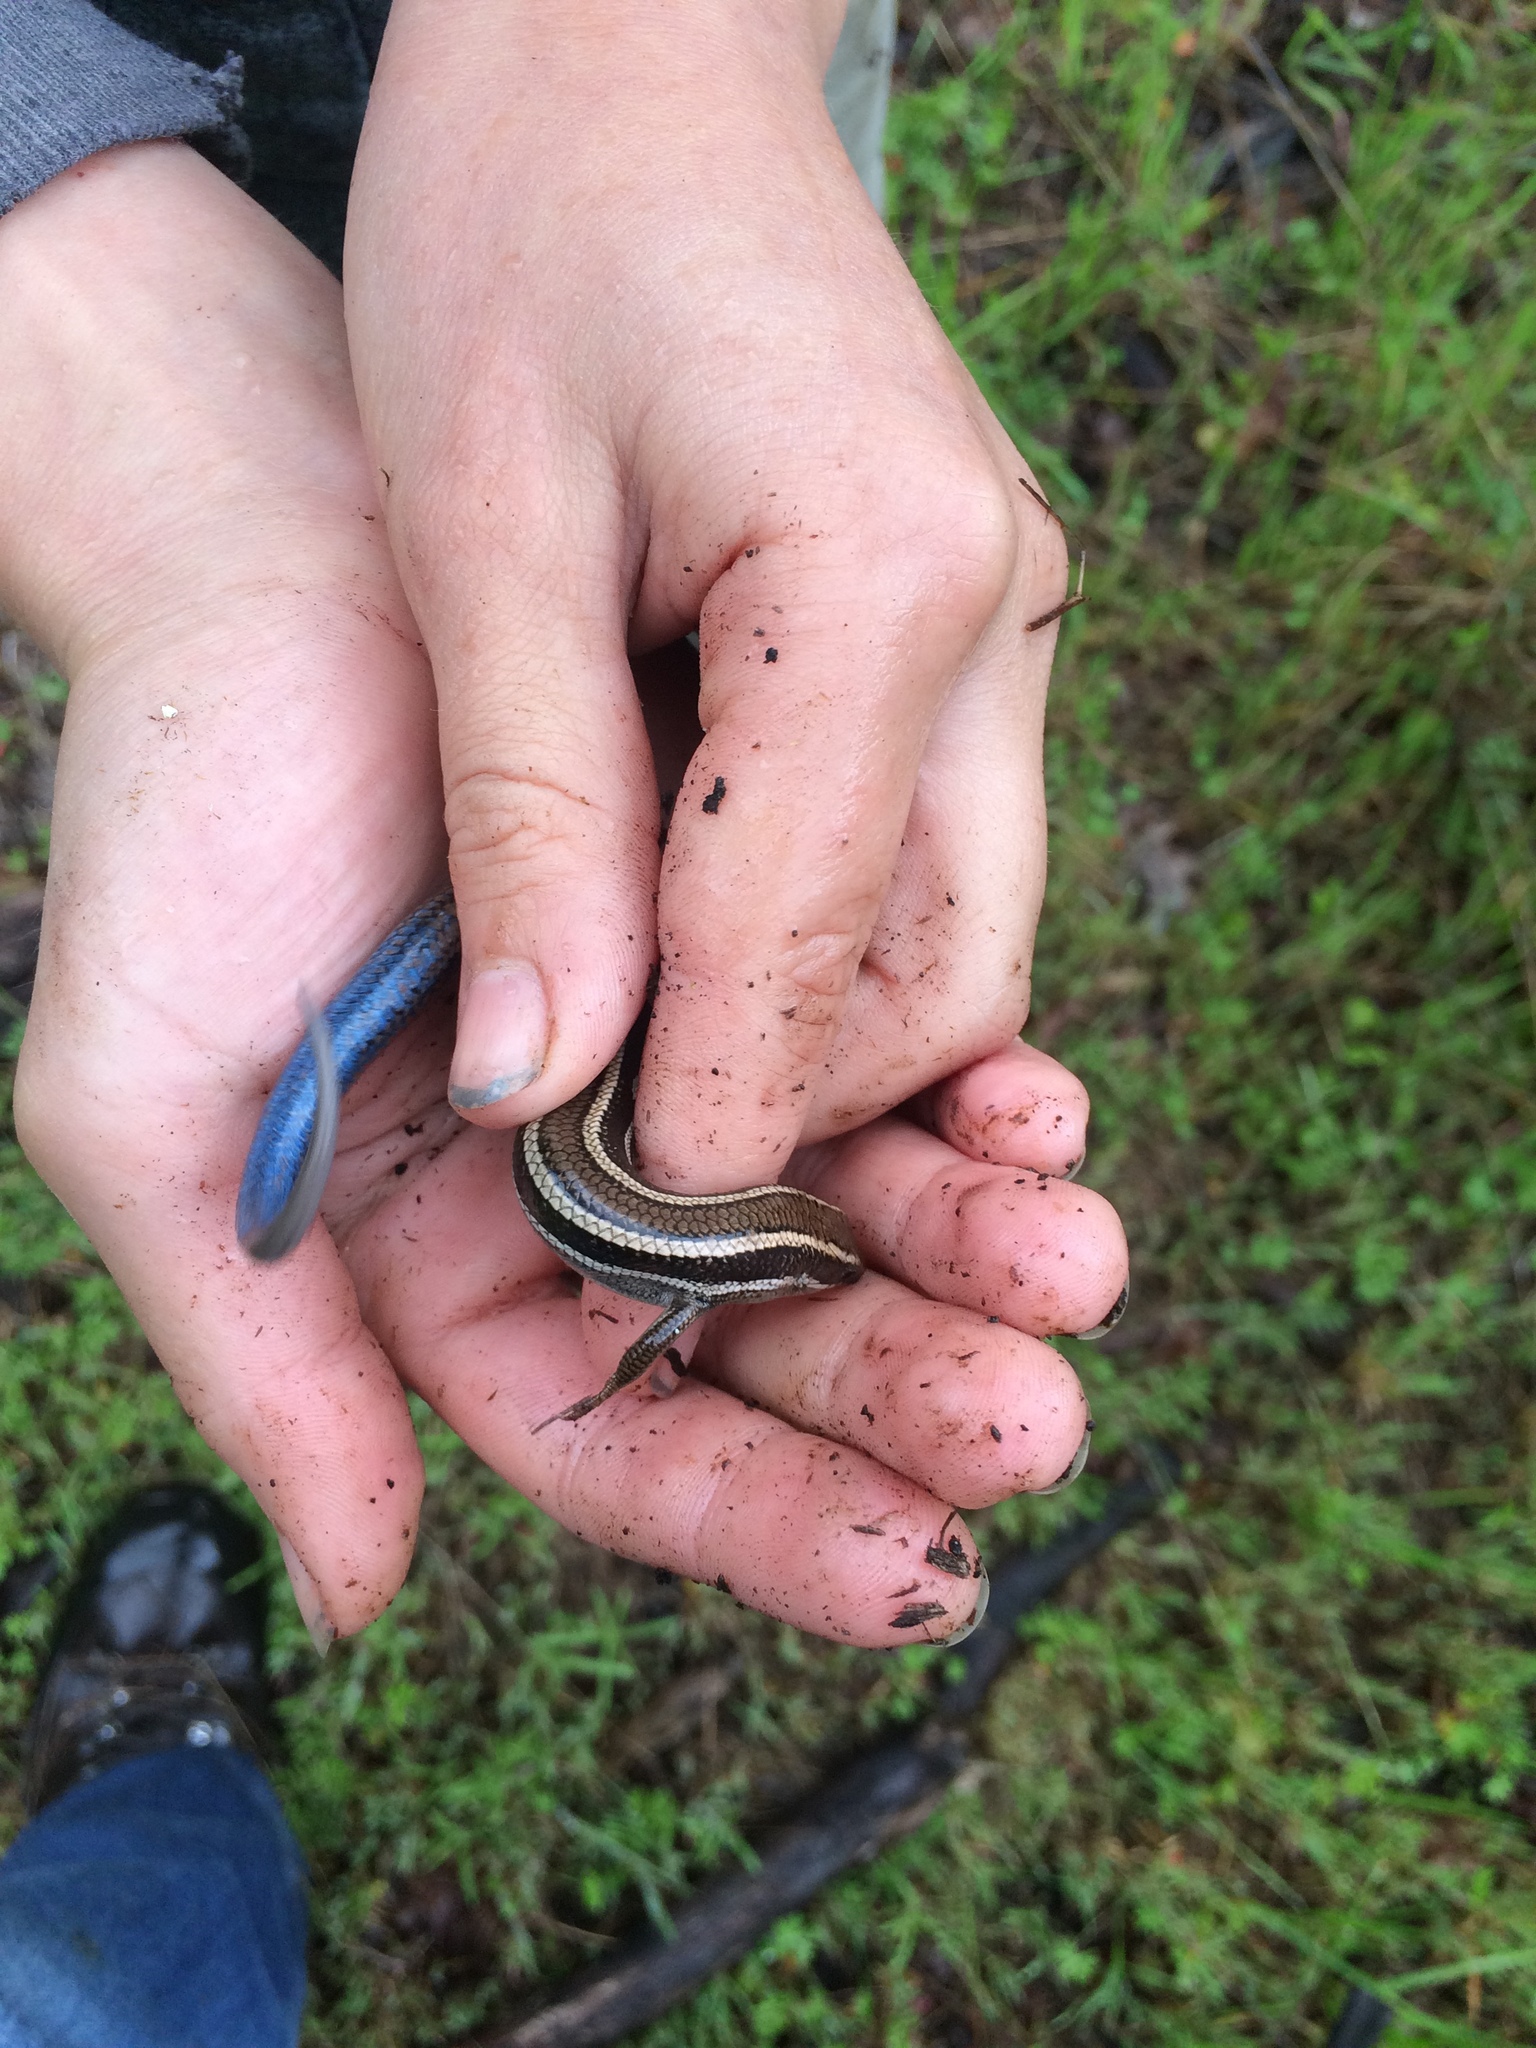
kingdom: Animalia
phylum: Chordata
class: Squamata
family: Scincidae
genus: Plestiodon
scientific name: Plestiodon skiltonianus
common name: Coronado island skink [interparietalis]
